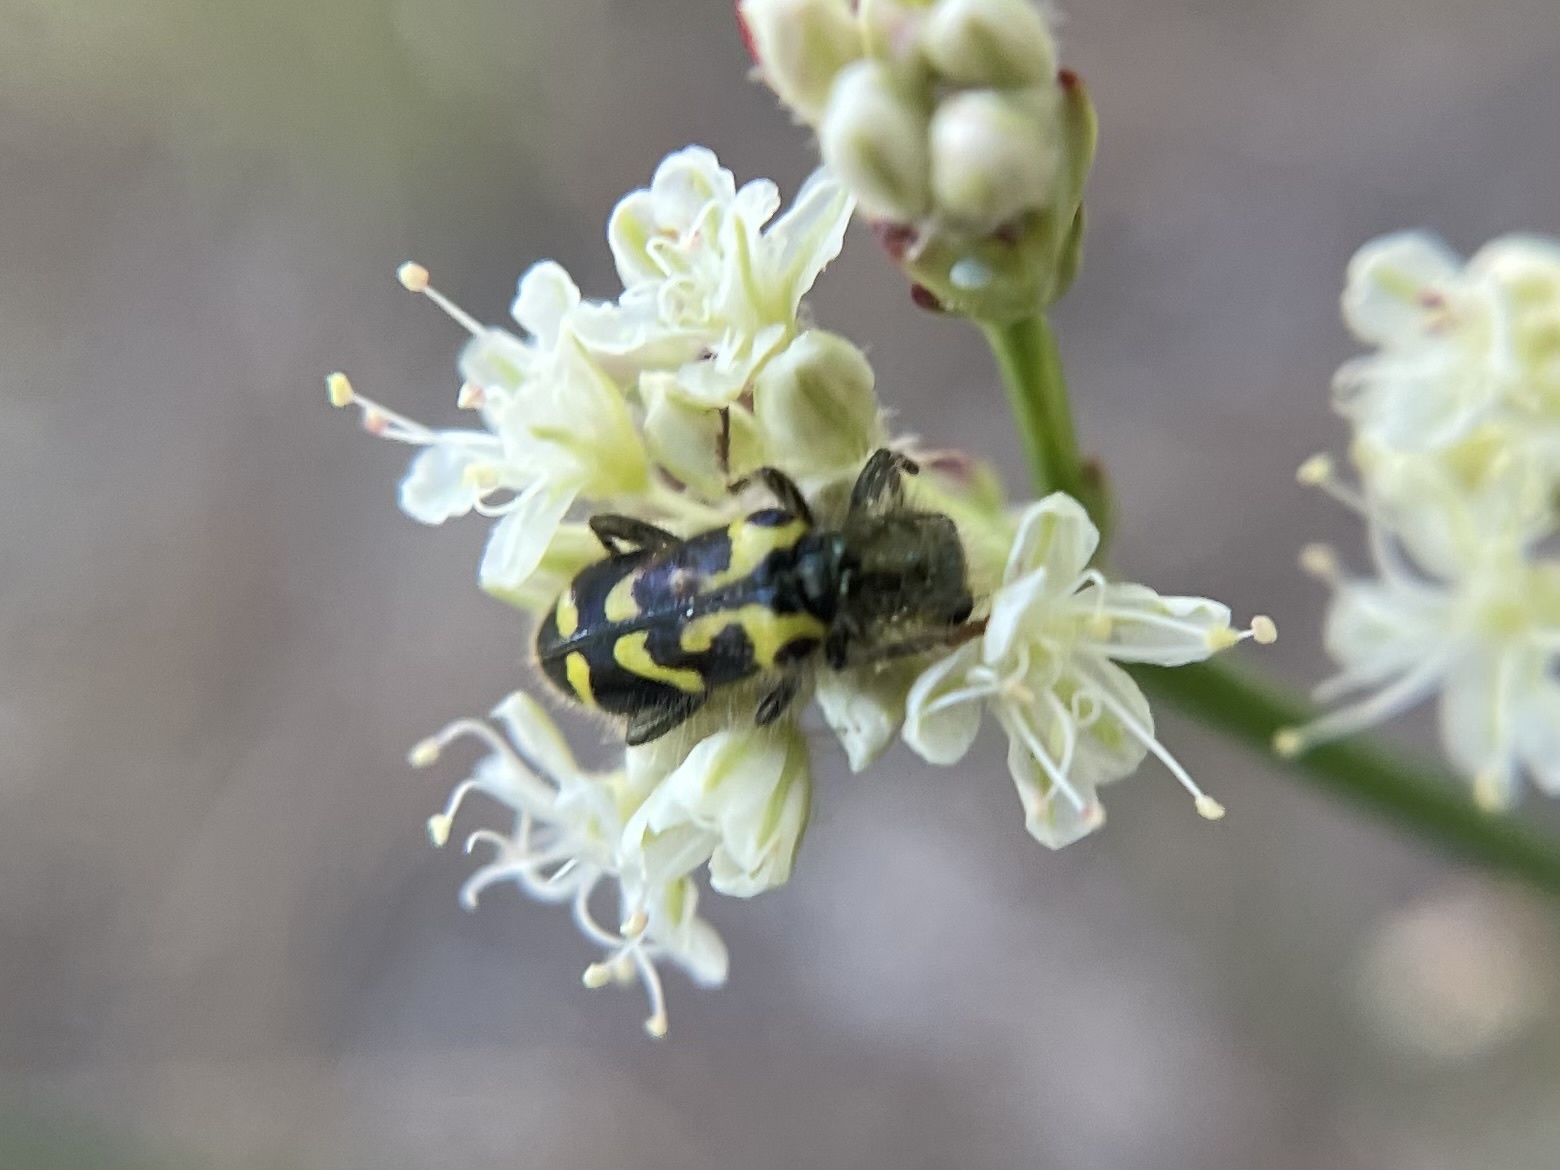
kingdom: Animalia
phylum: Arthropoda
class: Insecta
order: Coleoptera
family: Cleridae
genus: Trichodes
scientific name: Trichodes ornatus
